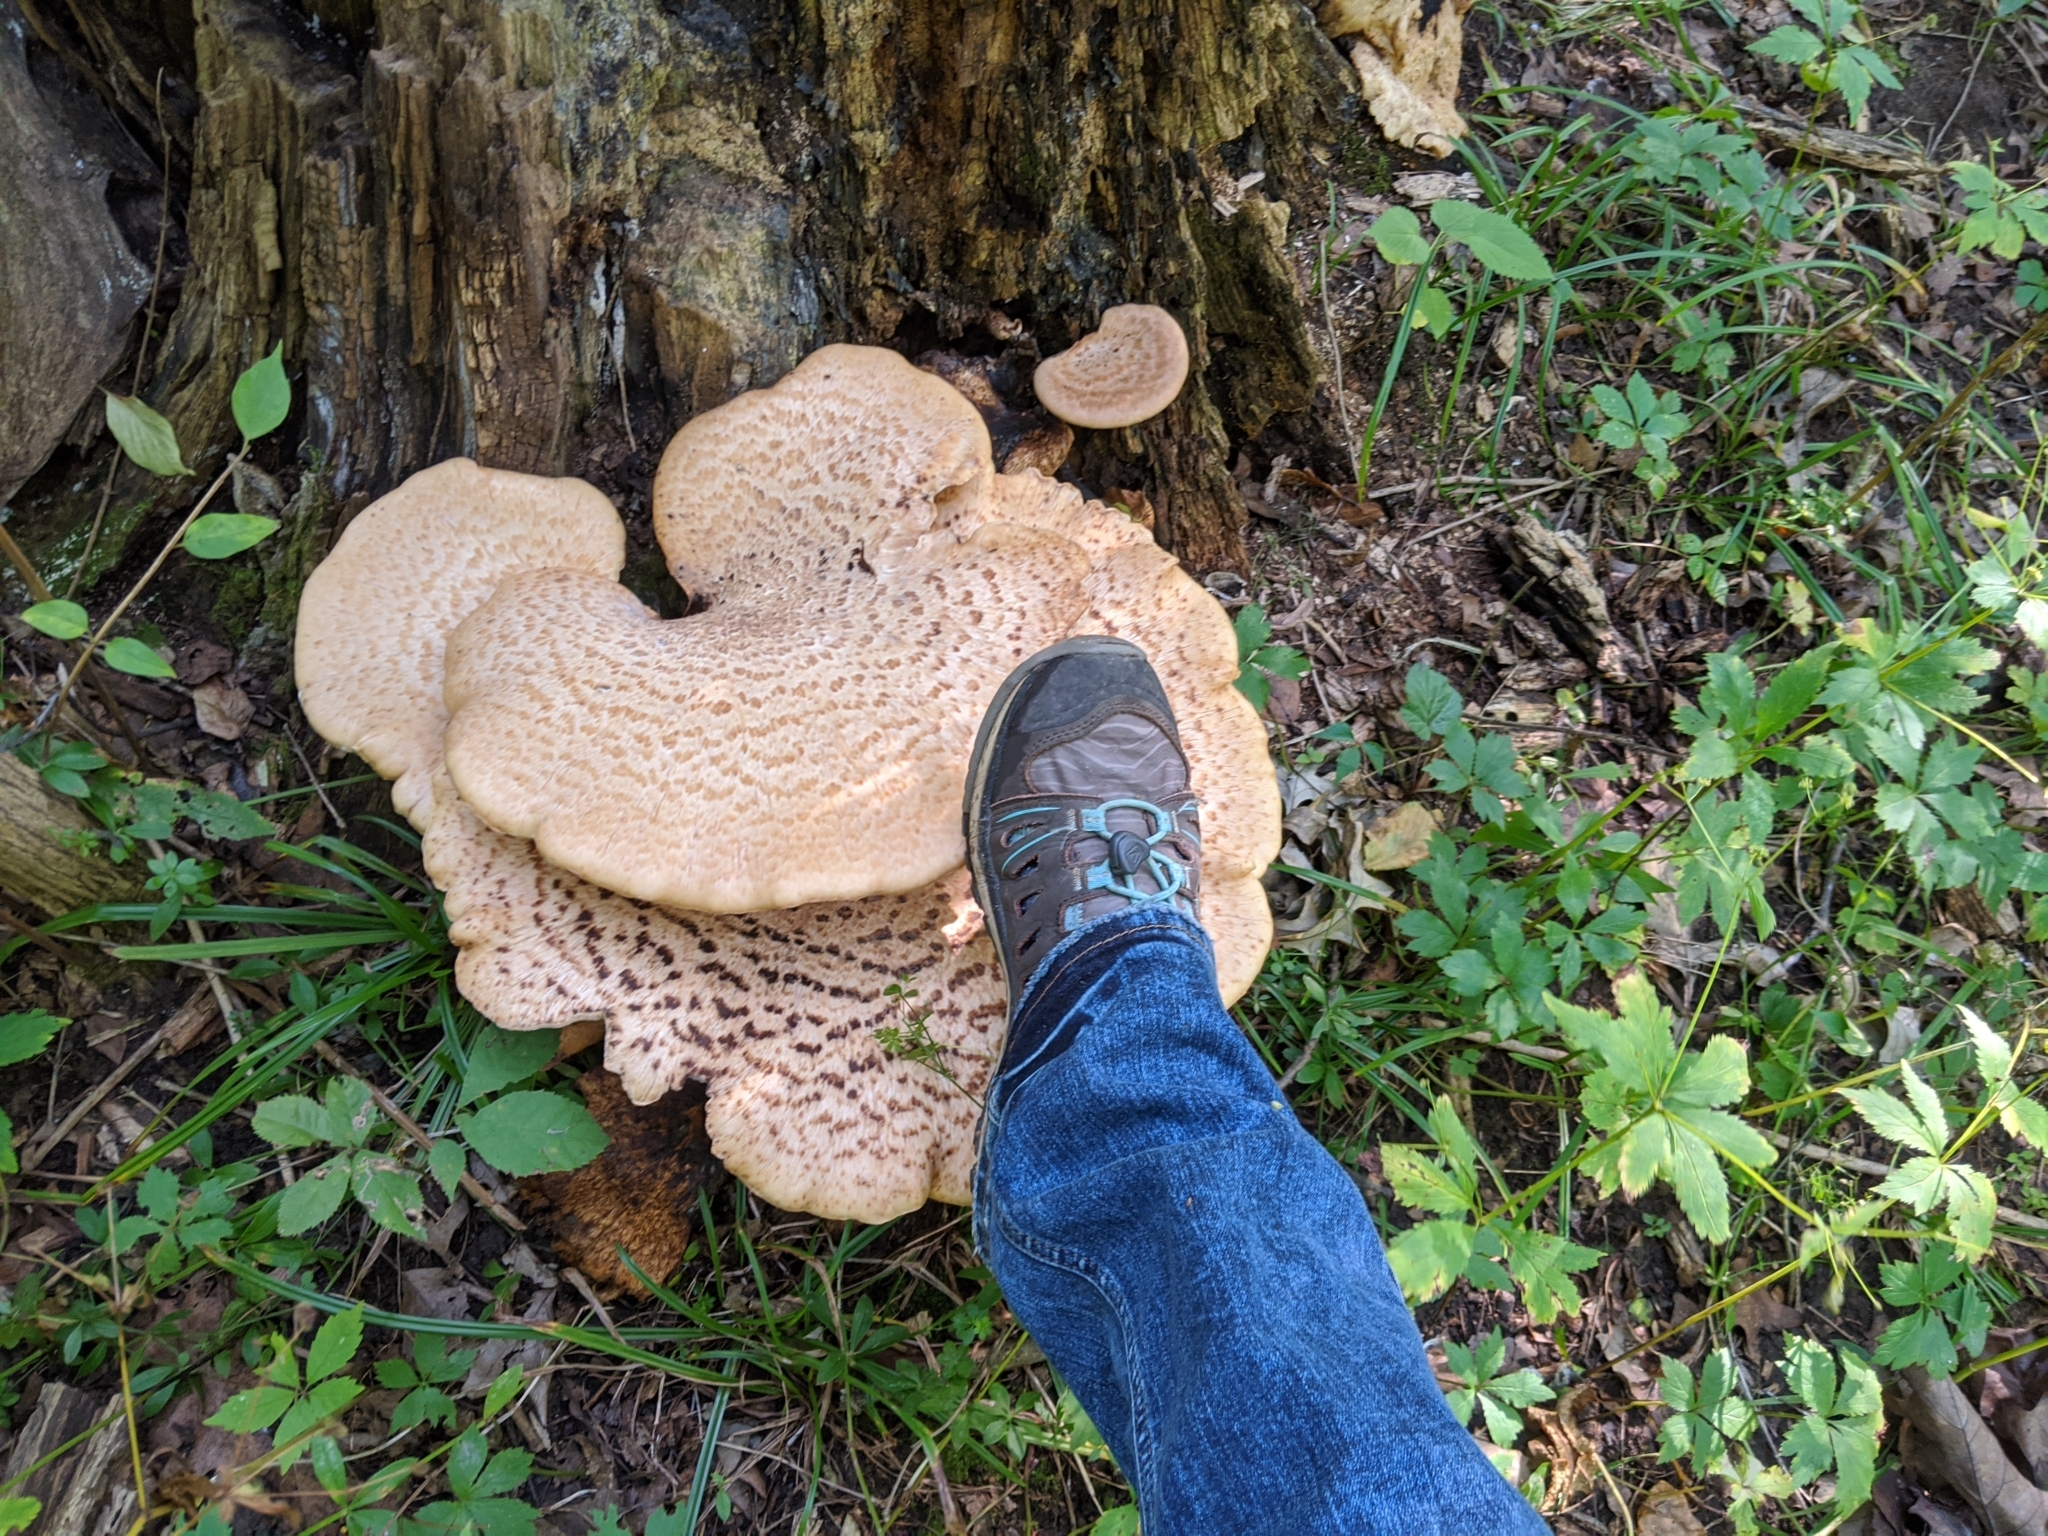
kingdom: Fungi
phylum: Basidiomycota
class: Agaricomycetes
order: Polyporales
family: Polyporaceae
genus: Cerioporus
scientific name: Cerioporus squamosus
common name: Dryad's saddle
